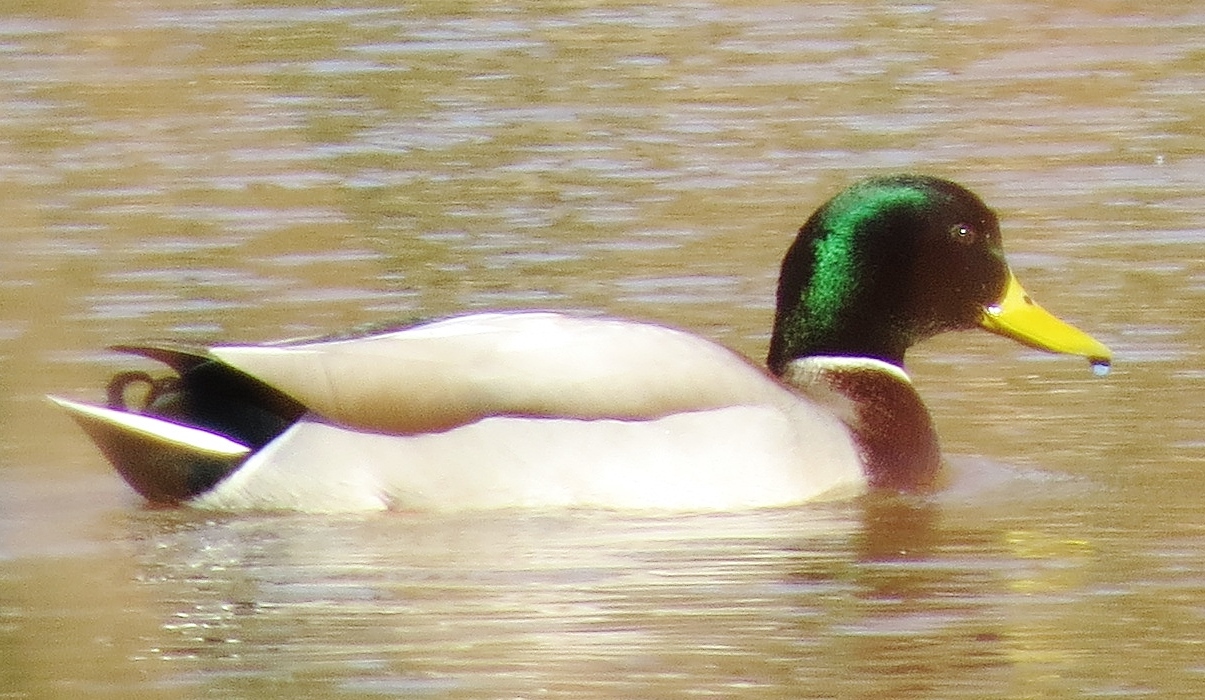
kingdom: Animalia
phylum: Chordata
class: Aves
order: Anseriformes
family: Anatidae
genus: Anas
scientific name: Anas platyrhynchos
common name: Mallard
